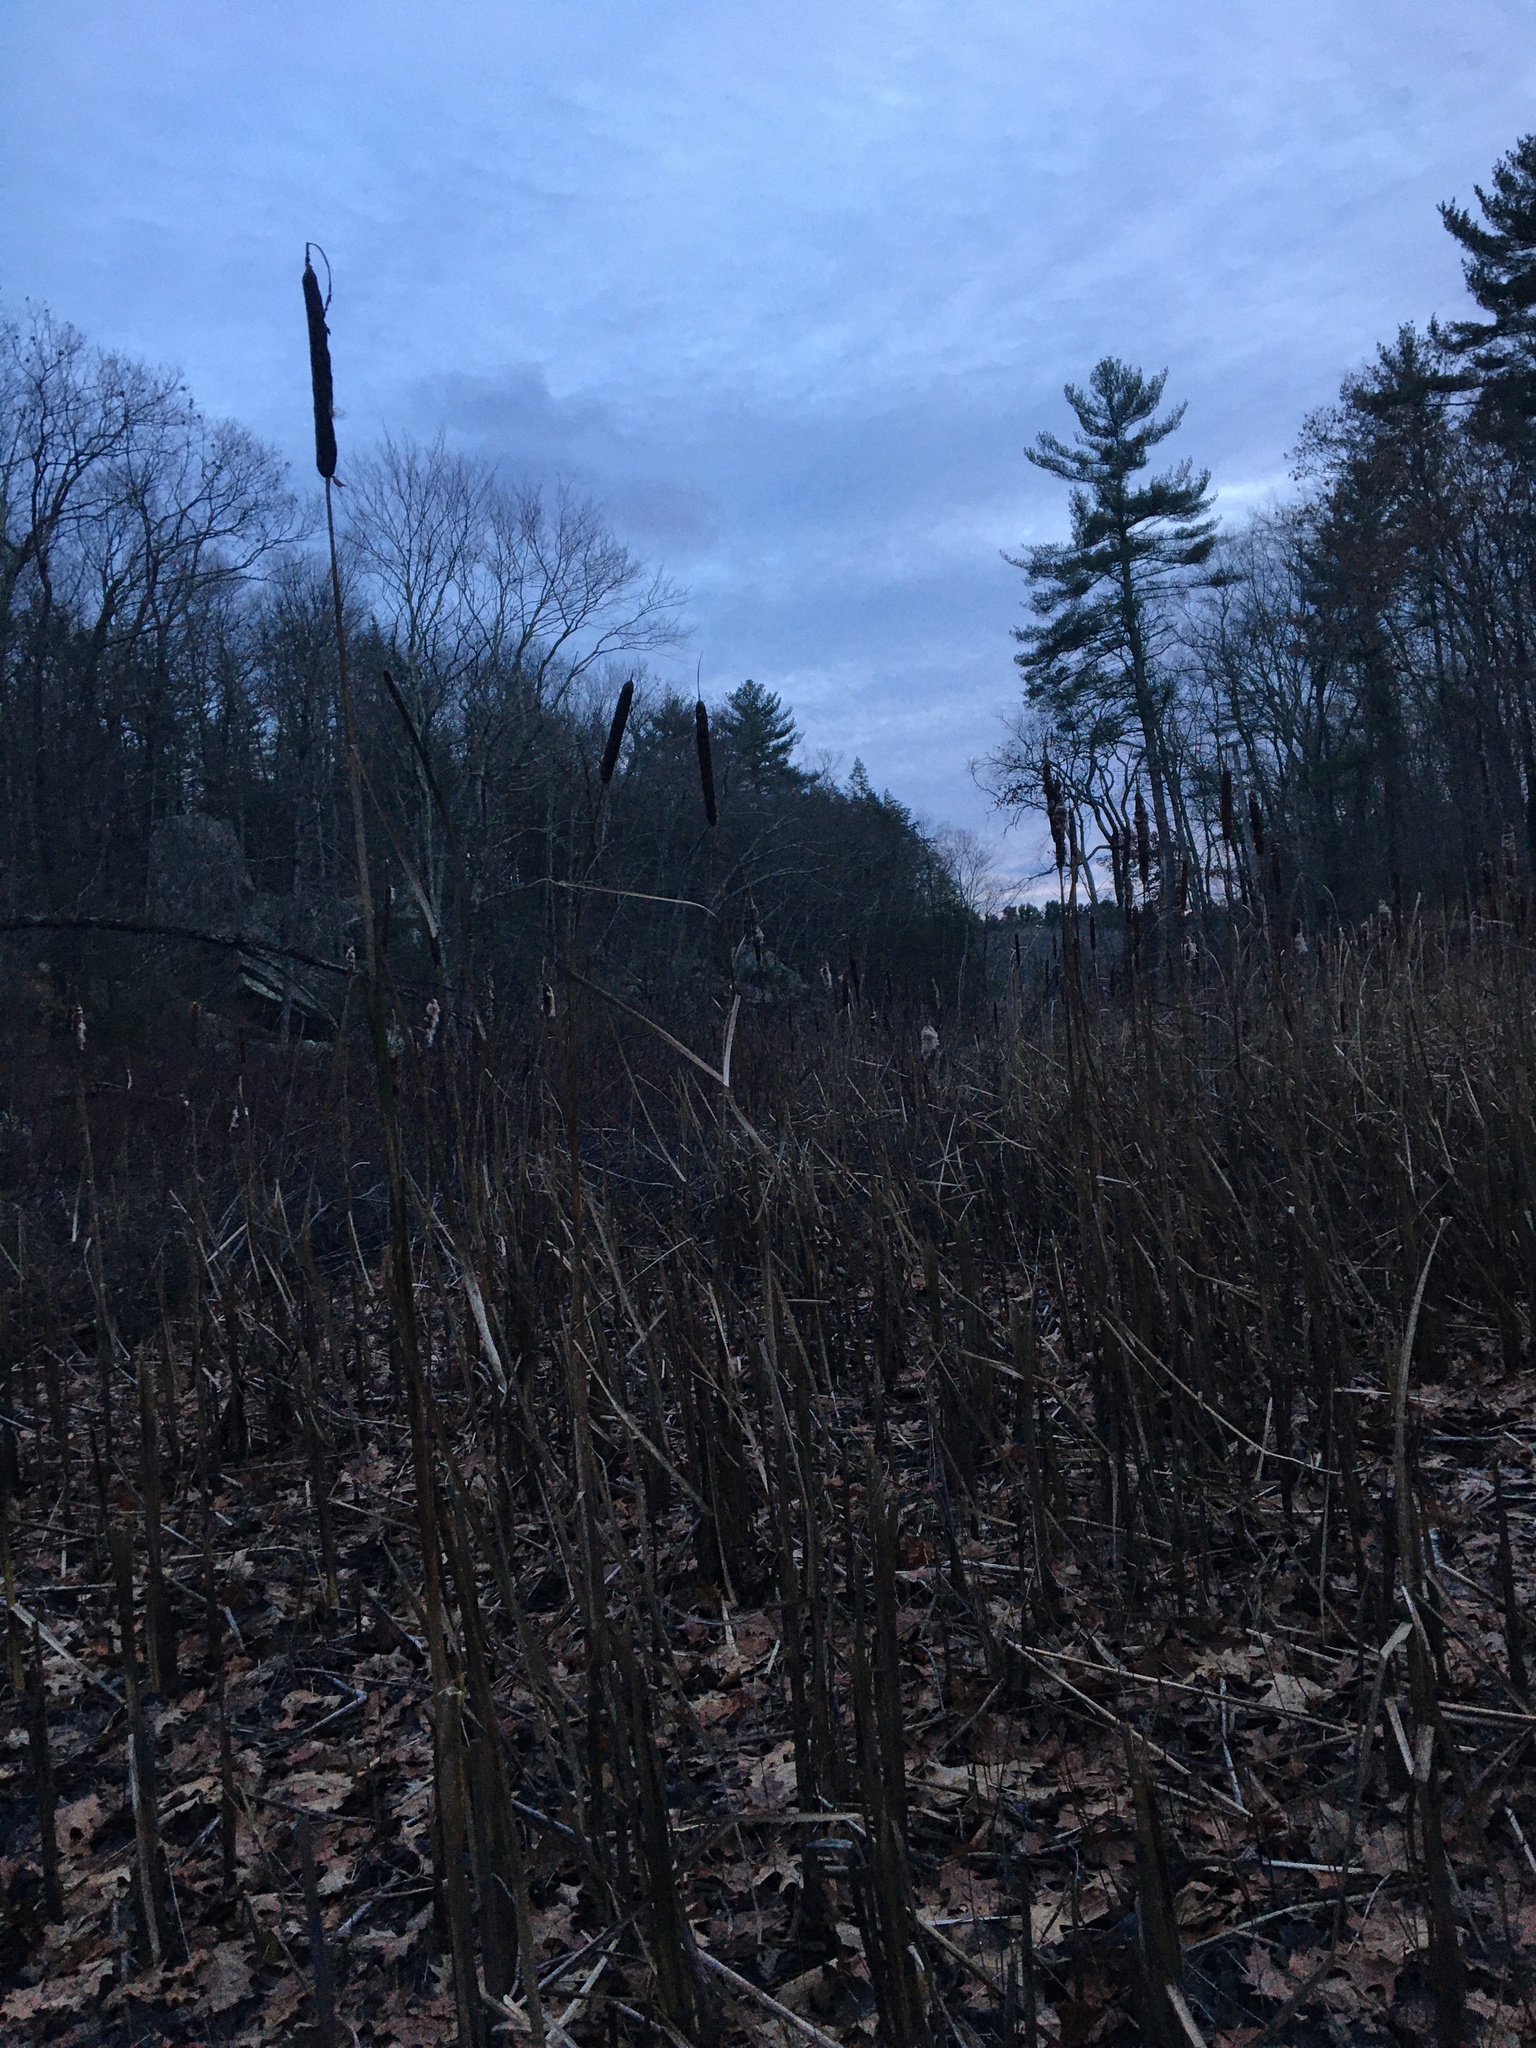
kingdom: Plantae
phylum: Tracheophyta
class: Liliopsida
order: Poales
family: Typhaceae
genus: Typha
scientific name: Typha
